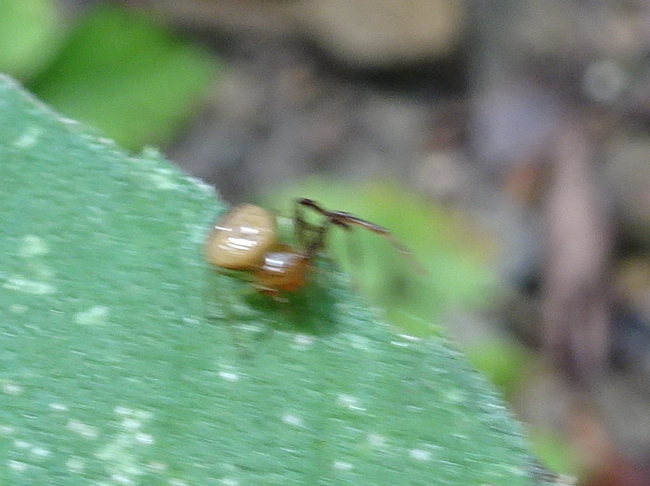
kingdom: Animalia
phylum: Arthropoda
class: Arachnida
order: Araneae
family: Thomisidae
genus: Synema
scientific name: Synema parvulum
